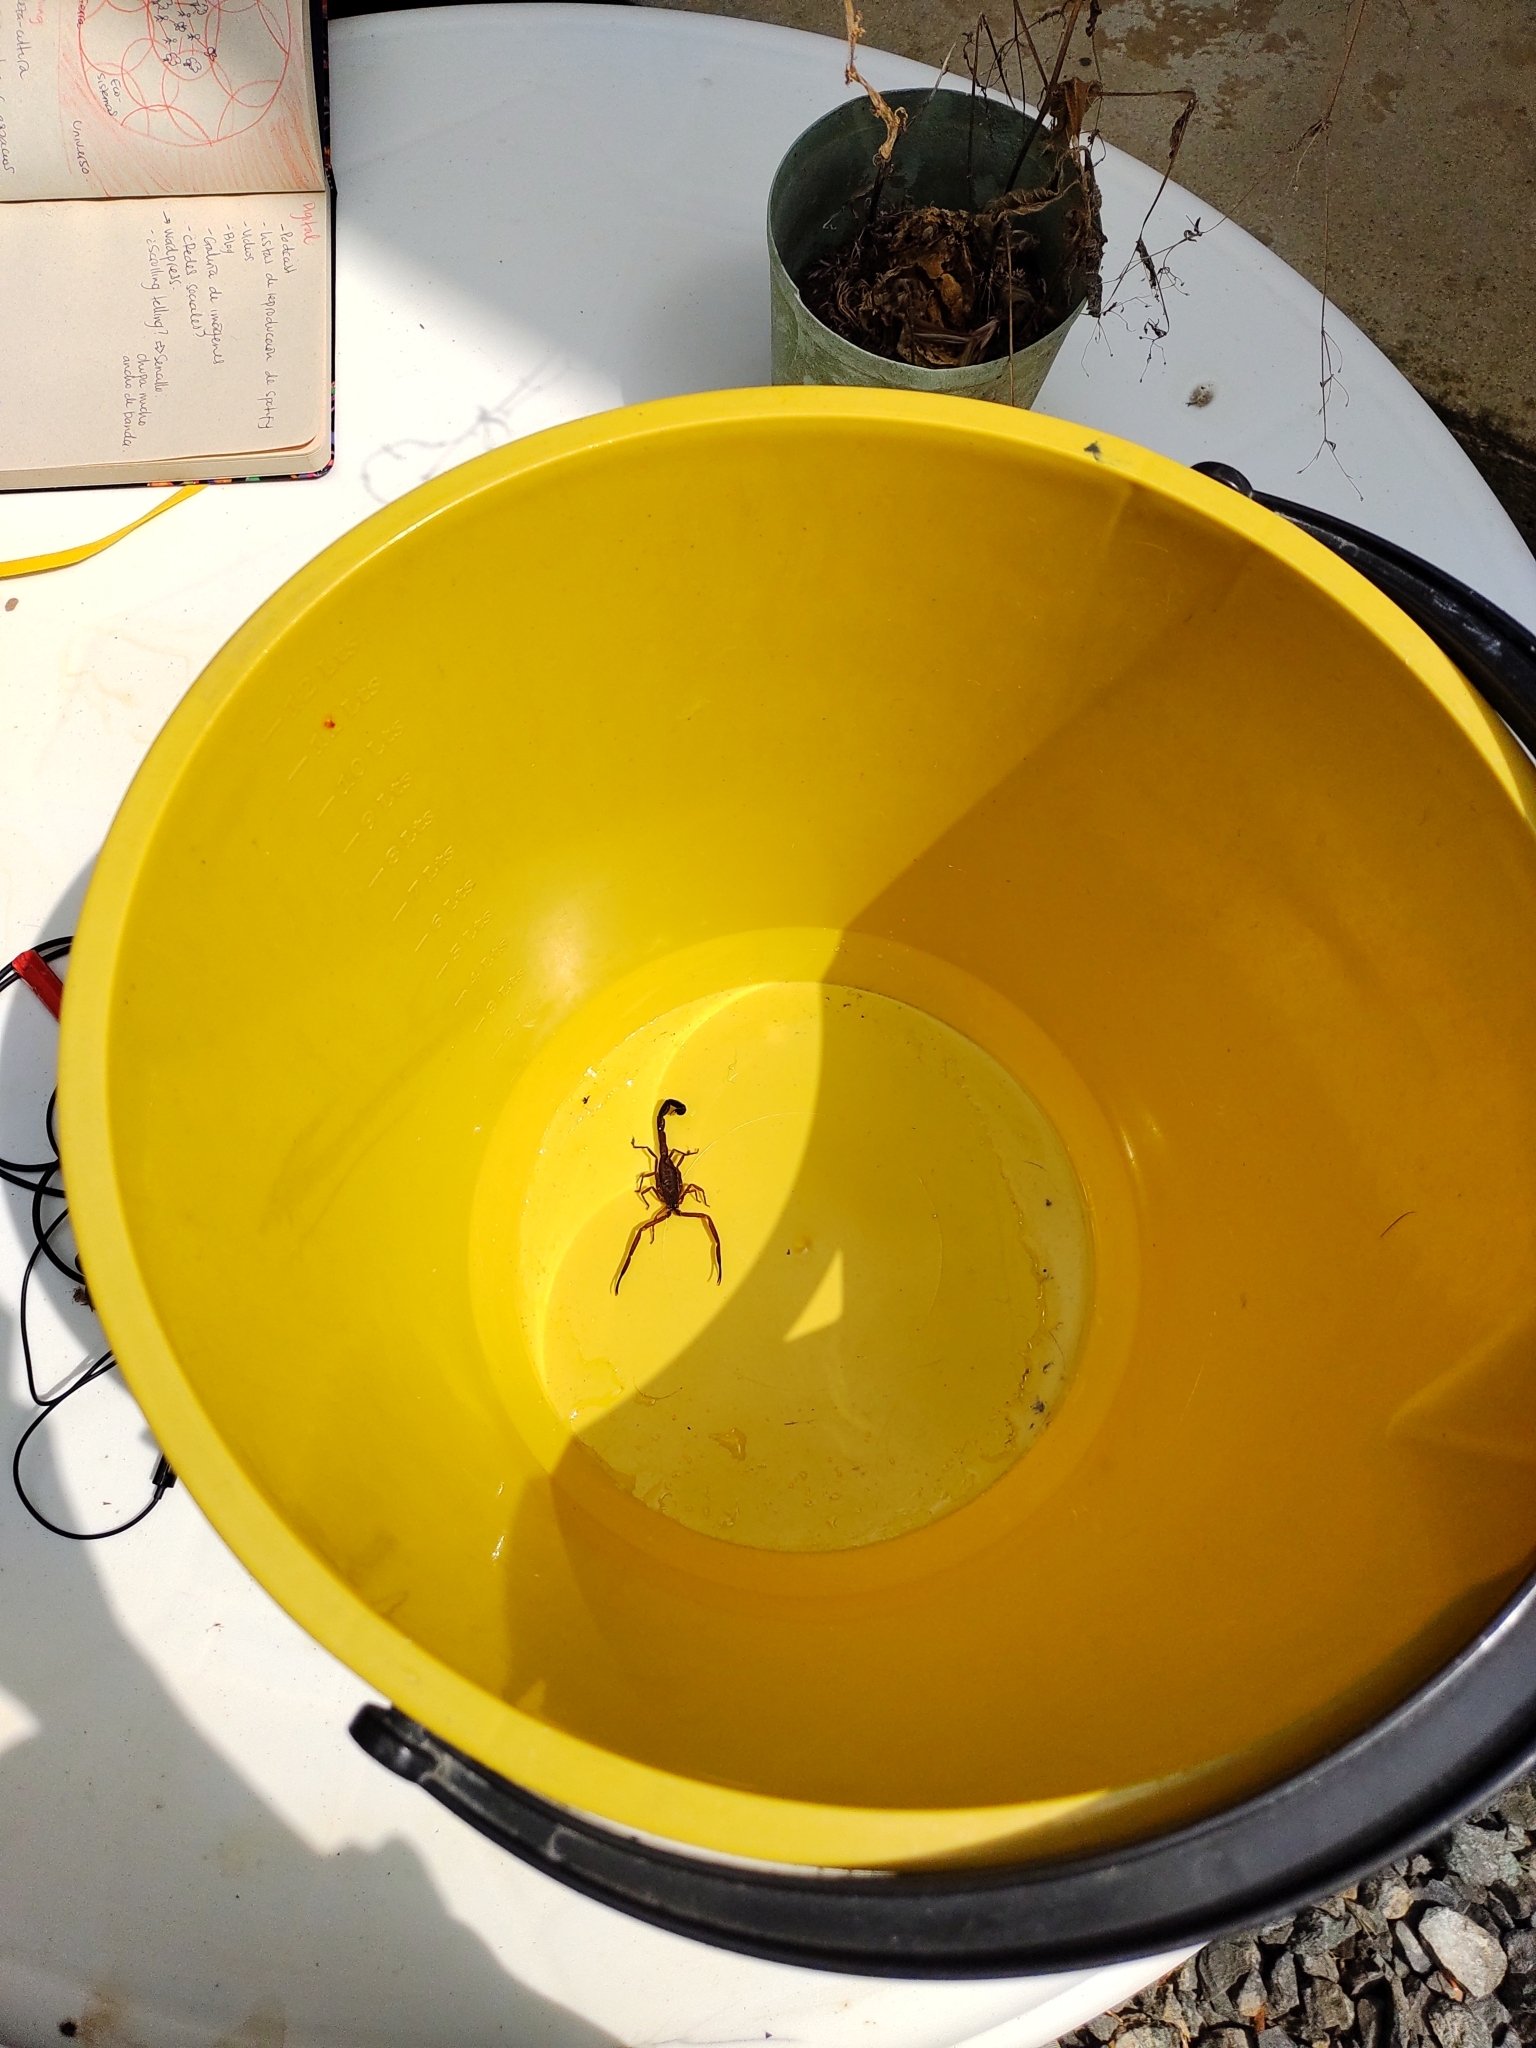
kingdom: Animalia
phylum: Arthropoda
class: Arachnida
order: Scorpiones
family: Buthidae
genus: Tityus
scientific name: Tityus antioquensis
